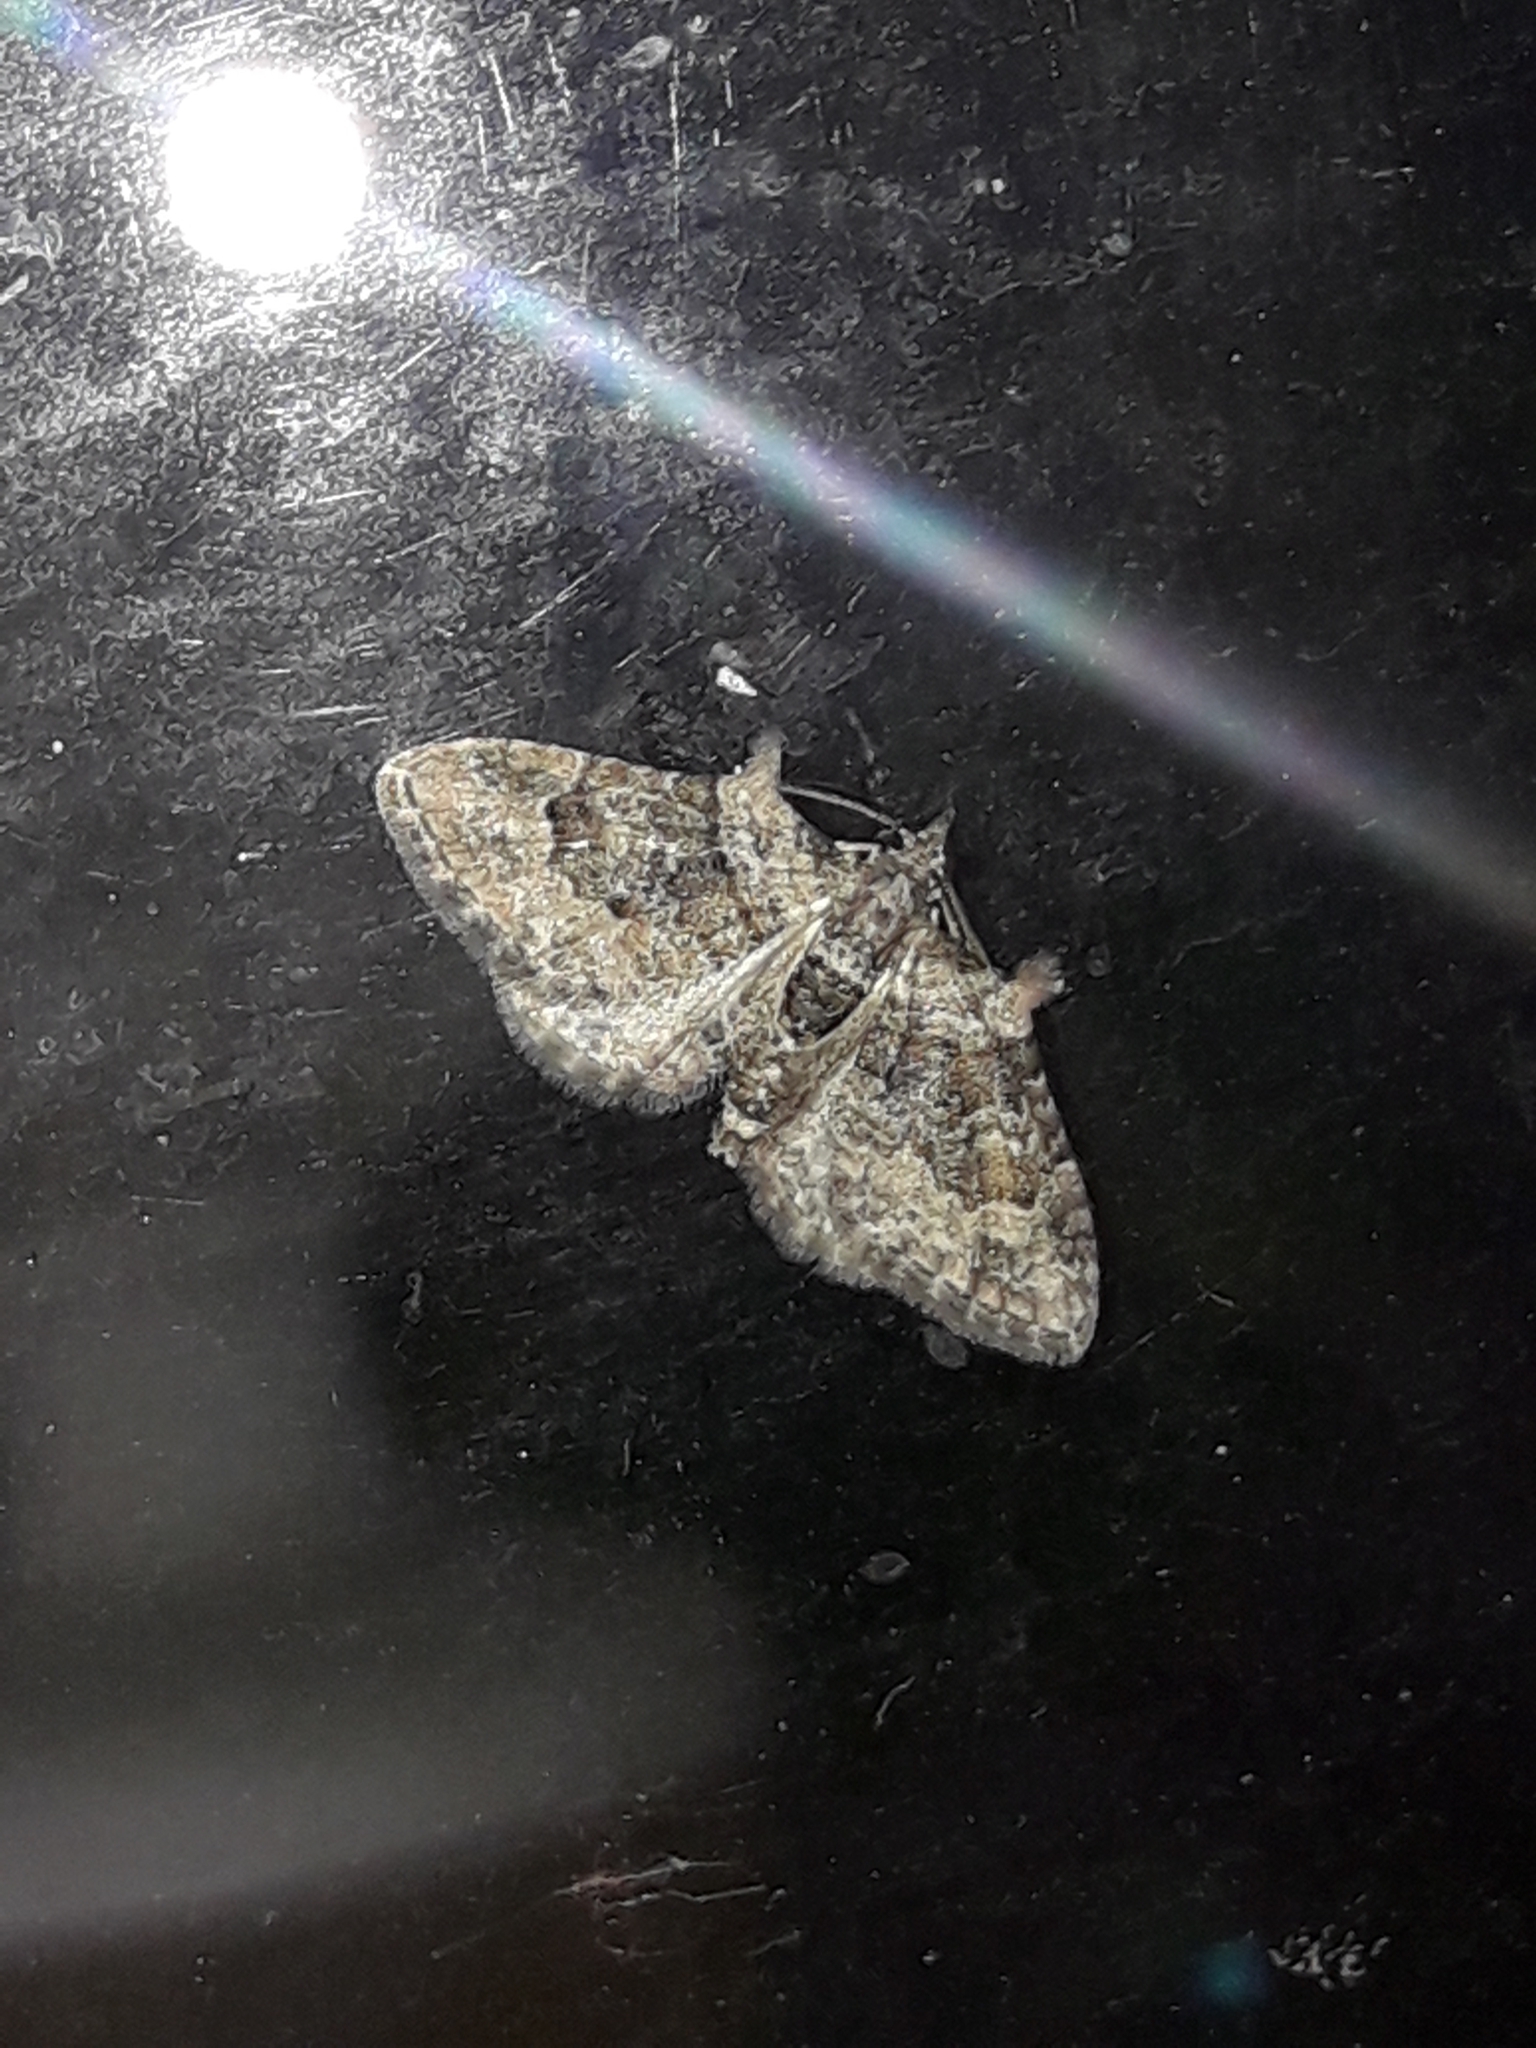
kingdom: Animalia
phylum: Arthropoda
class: Insecta
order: Lepidoptera
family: Geometridae
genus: Phrissogonus
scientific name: Phrissogonus laticostata
